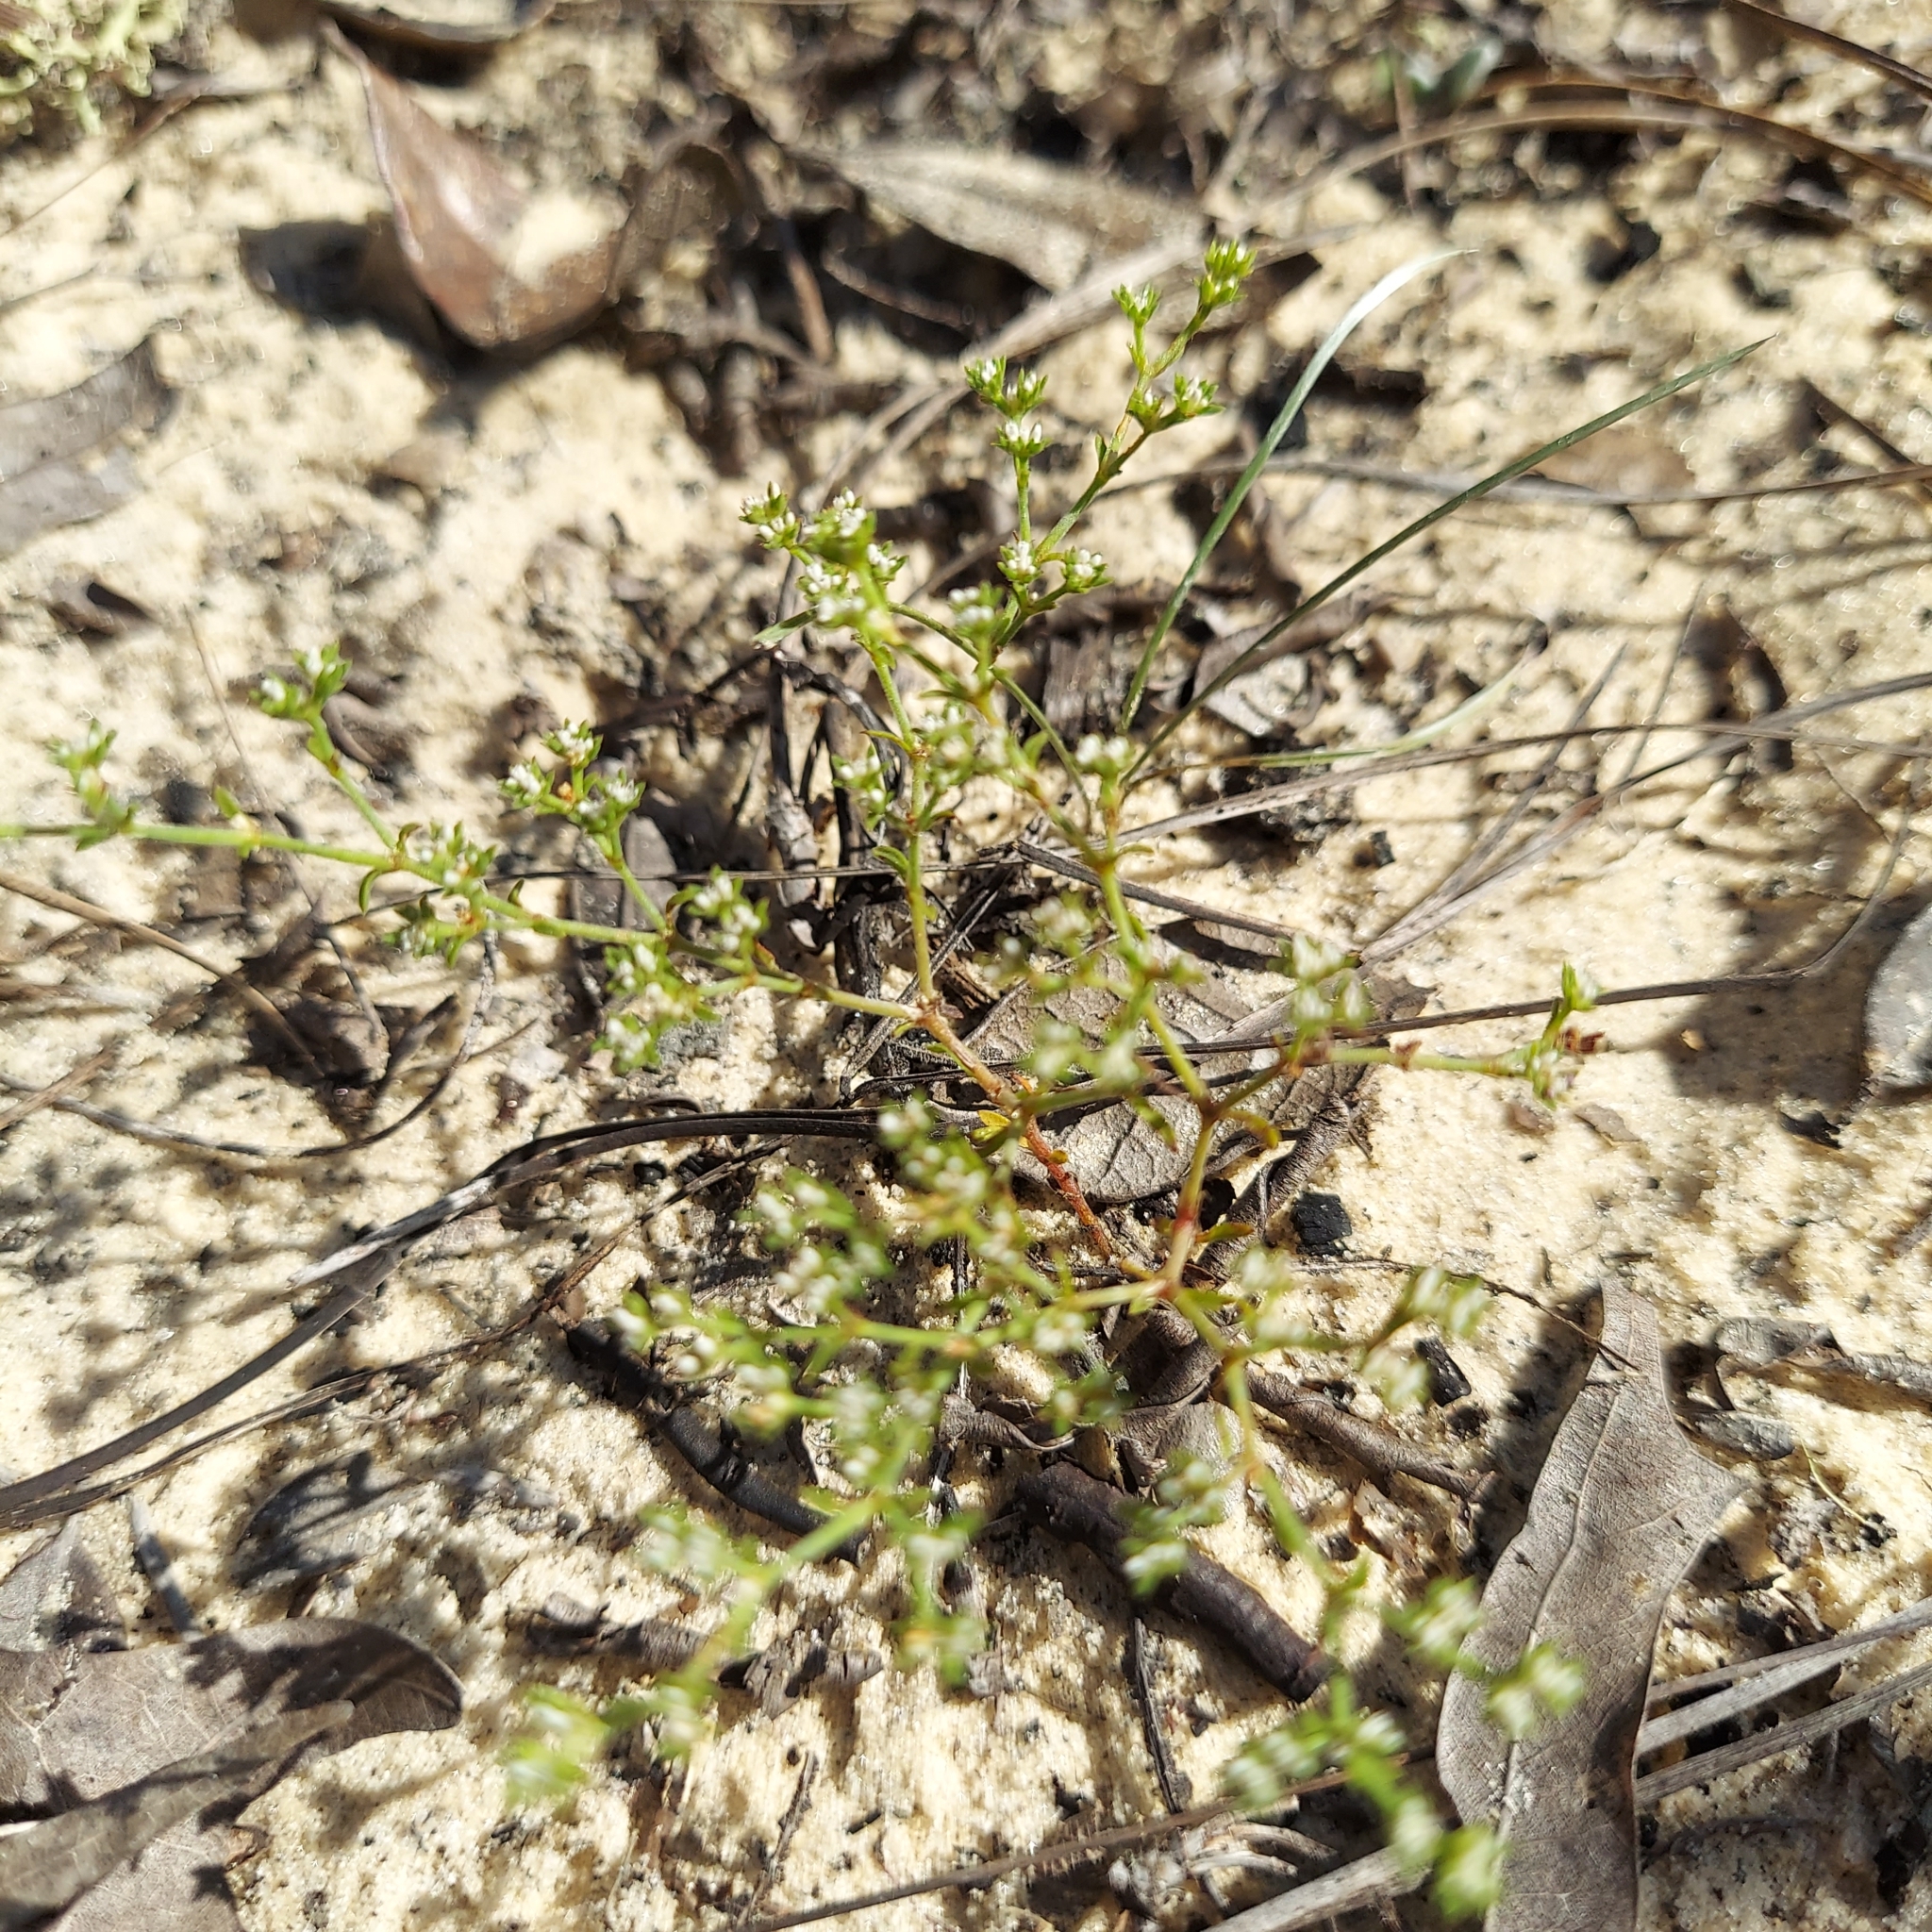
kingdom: Plantae
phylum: Tracheophyta
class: Magnoliopsida
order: Caryophyllales
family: Caryophyllaceae
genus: Paronychia
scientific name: Paronychia patula
